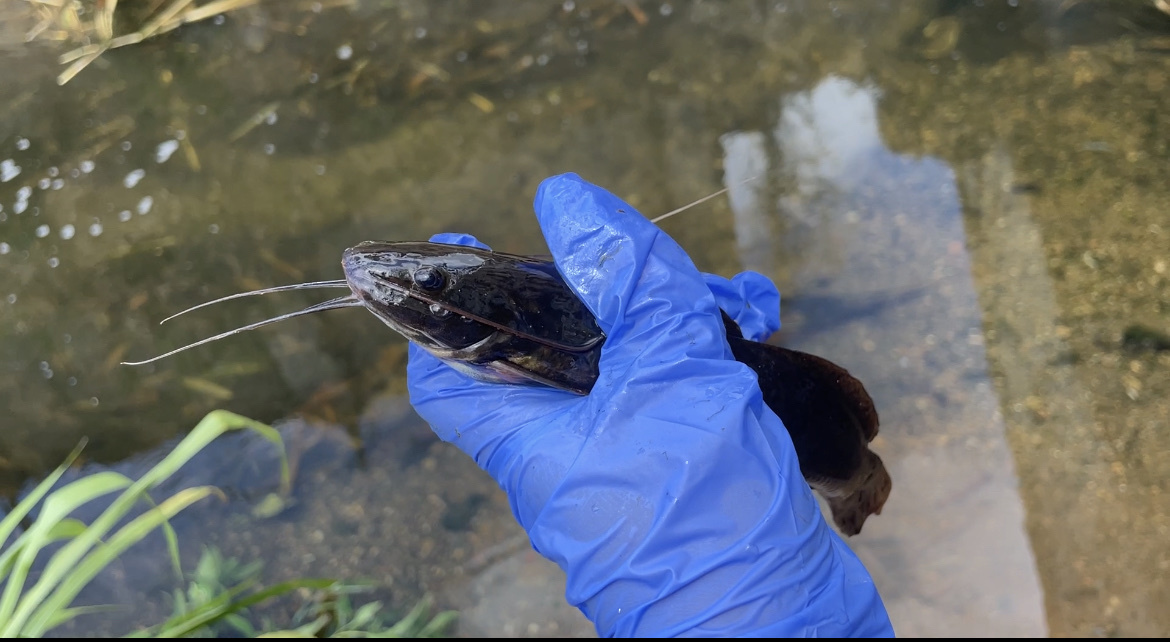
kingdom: Animalia
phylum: Chordata
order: Siluriformes
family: Heptapteridae
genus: Rhamdia
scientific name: Rhamdia quelen
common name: Catfish
